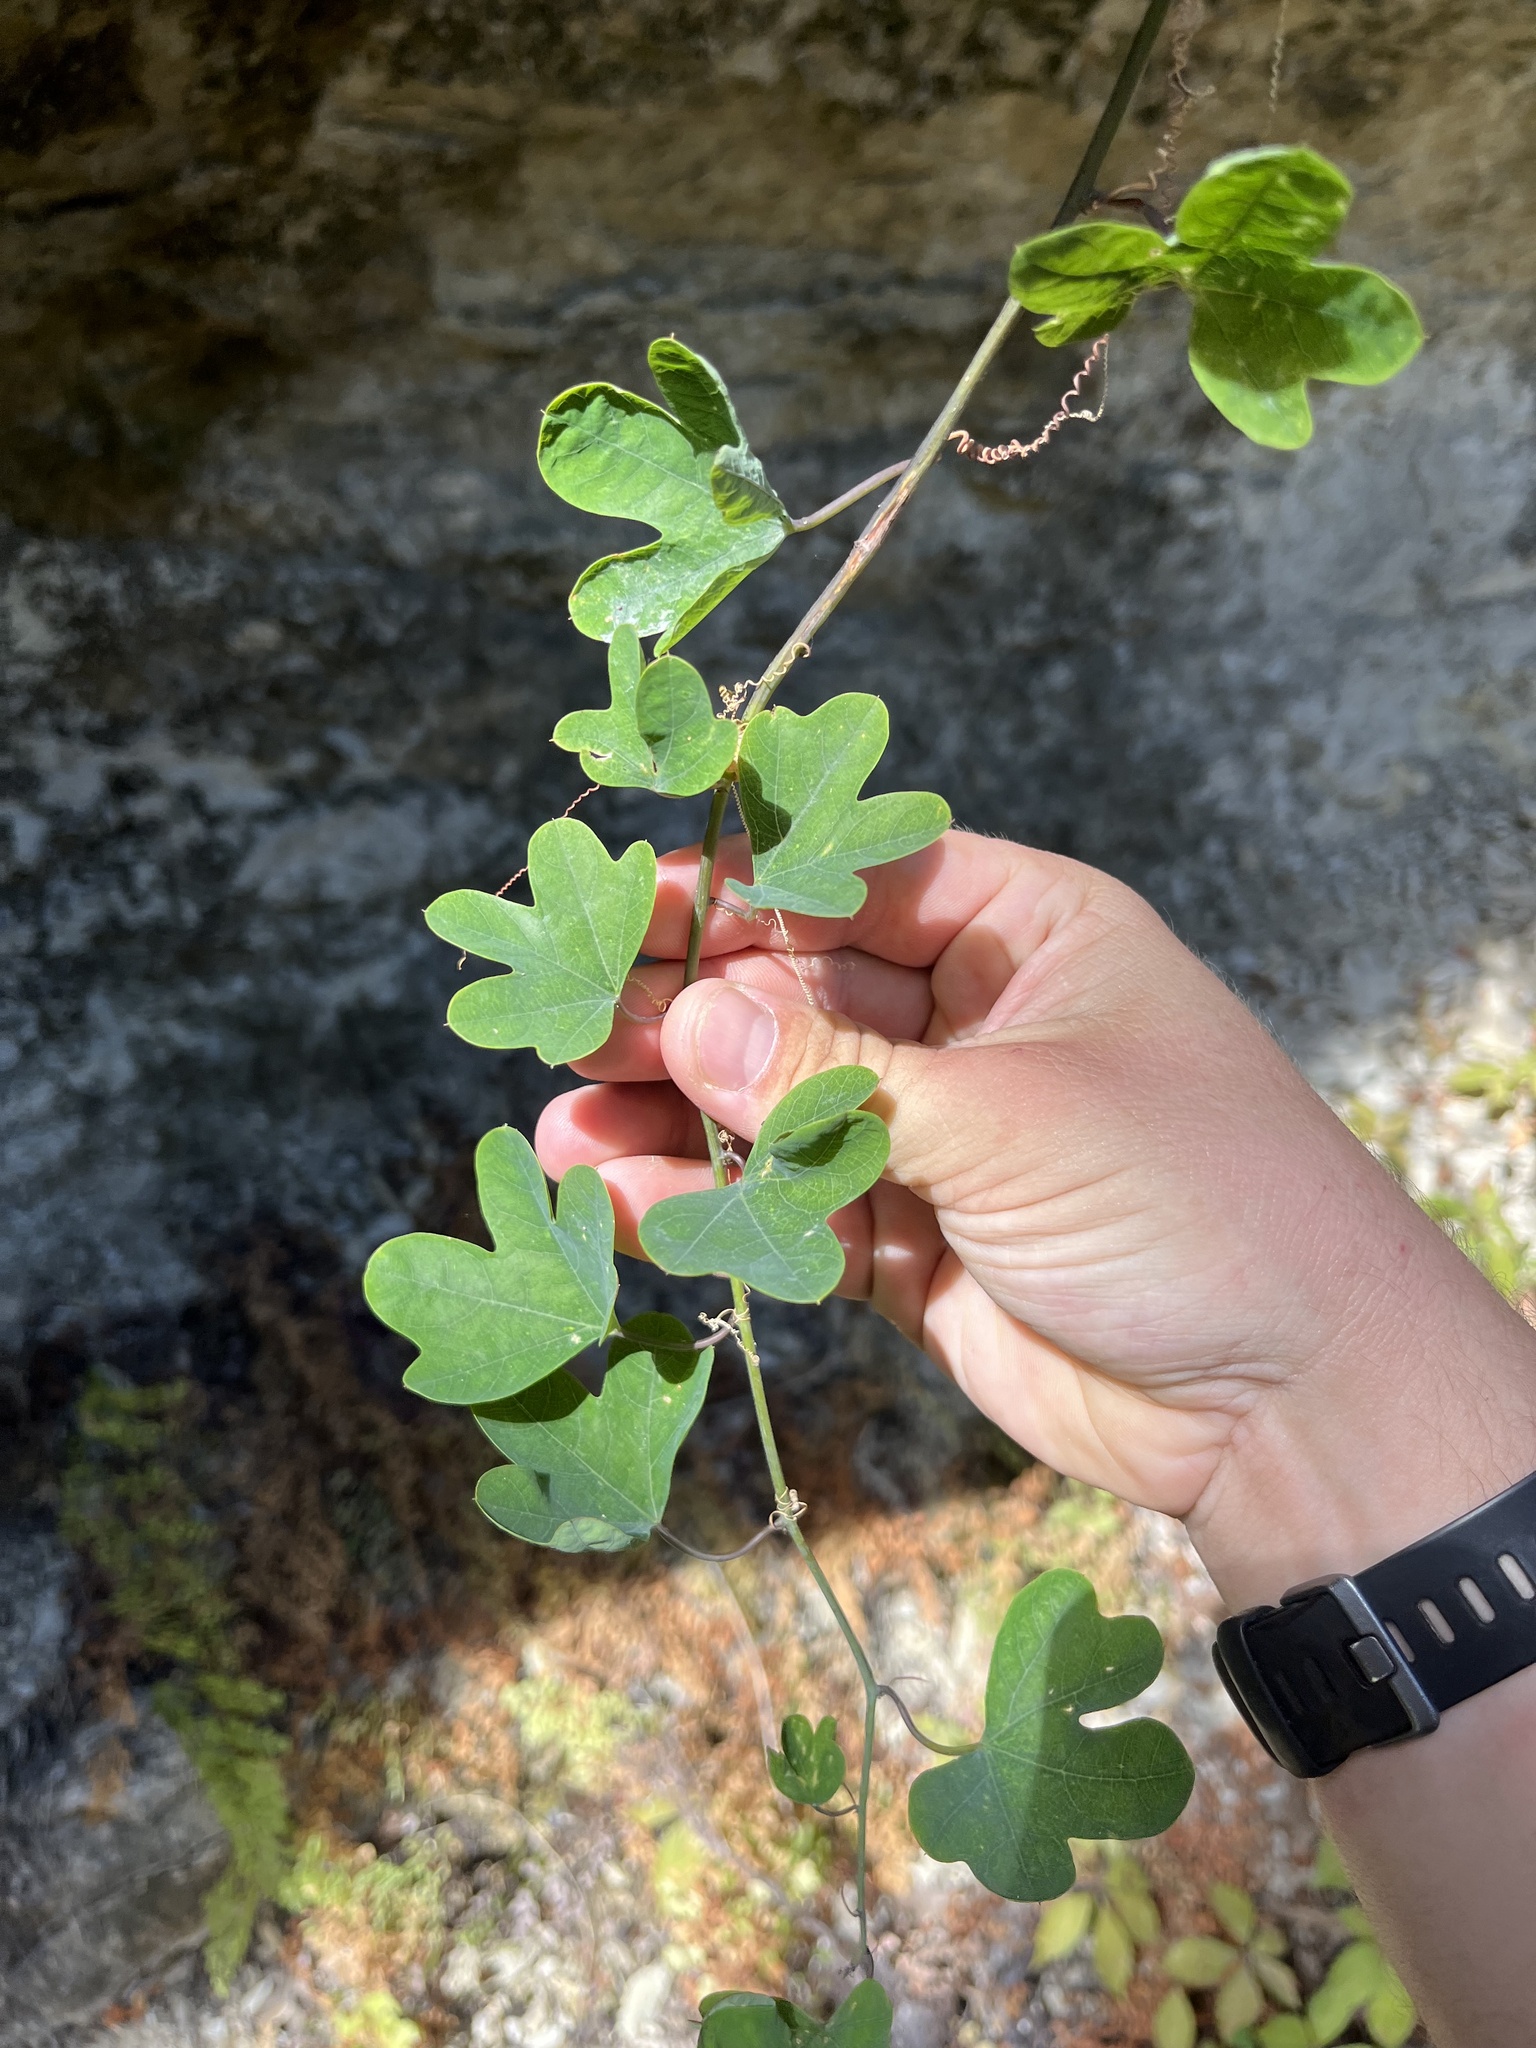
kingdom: Plantae
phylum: Tracheophyta
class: Magnoliopsida
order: Malpighiales
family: Passifloraceae
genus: Passiflora
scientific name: Passiflora affinis
